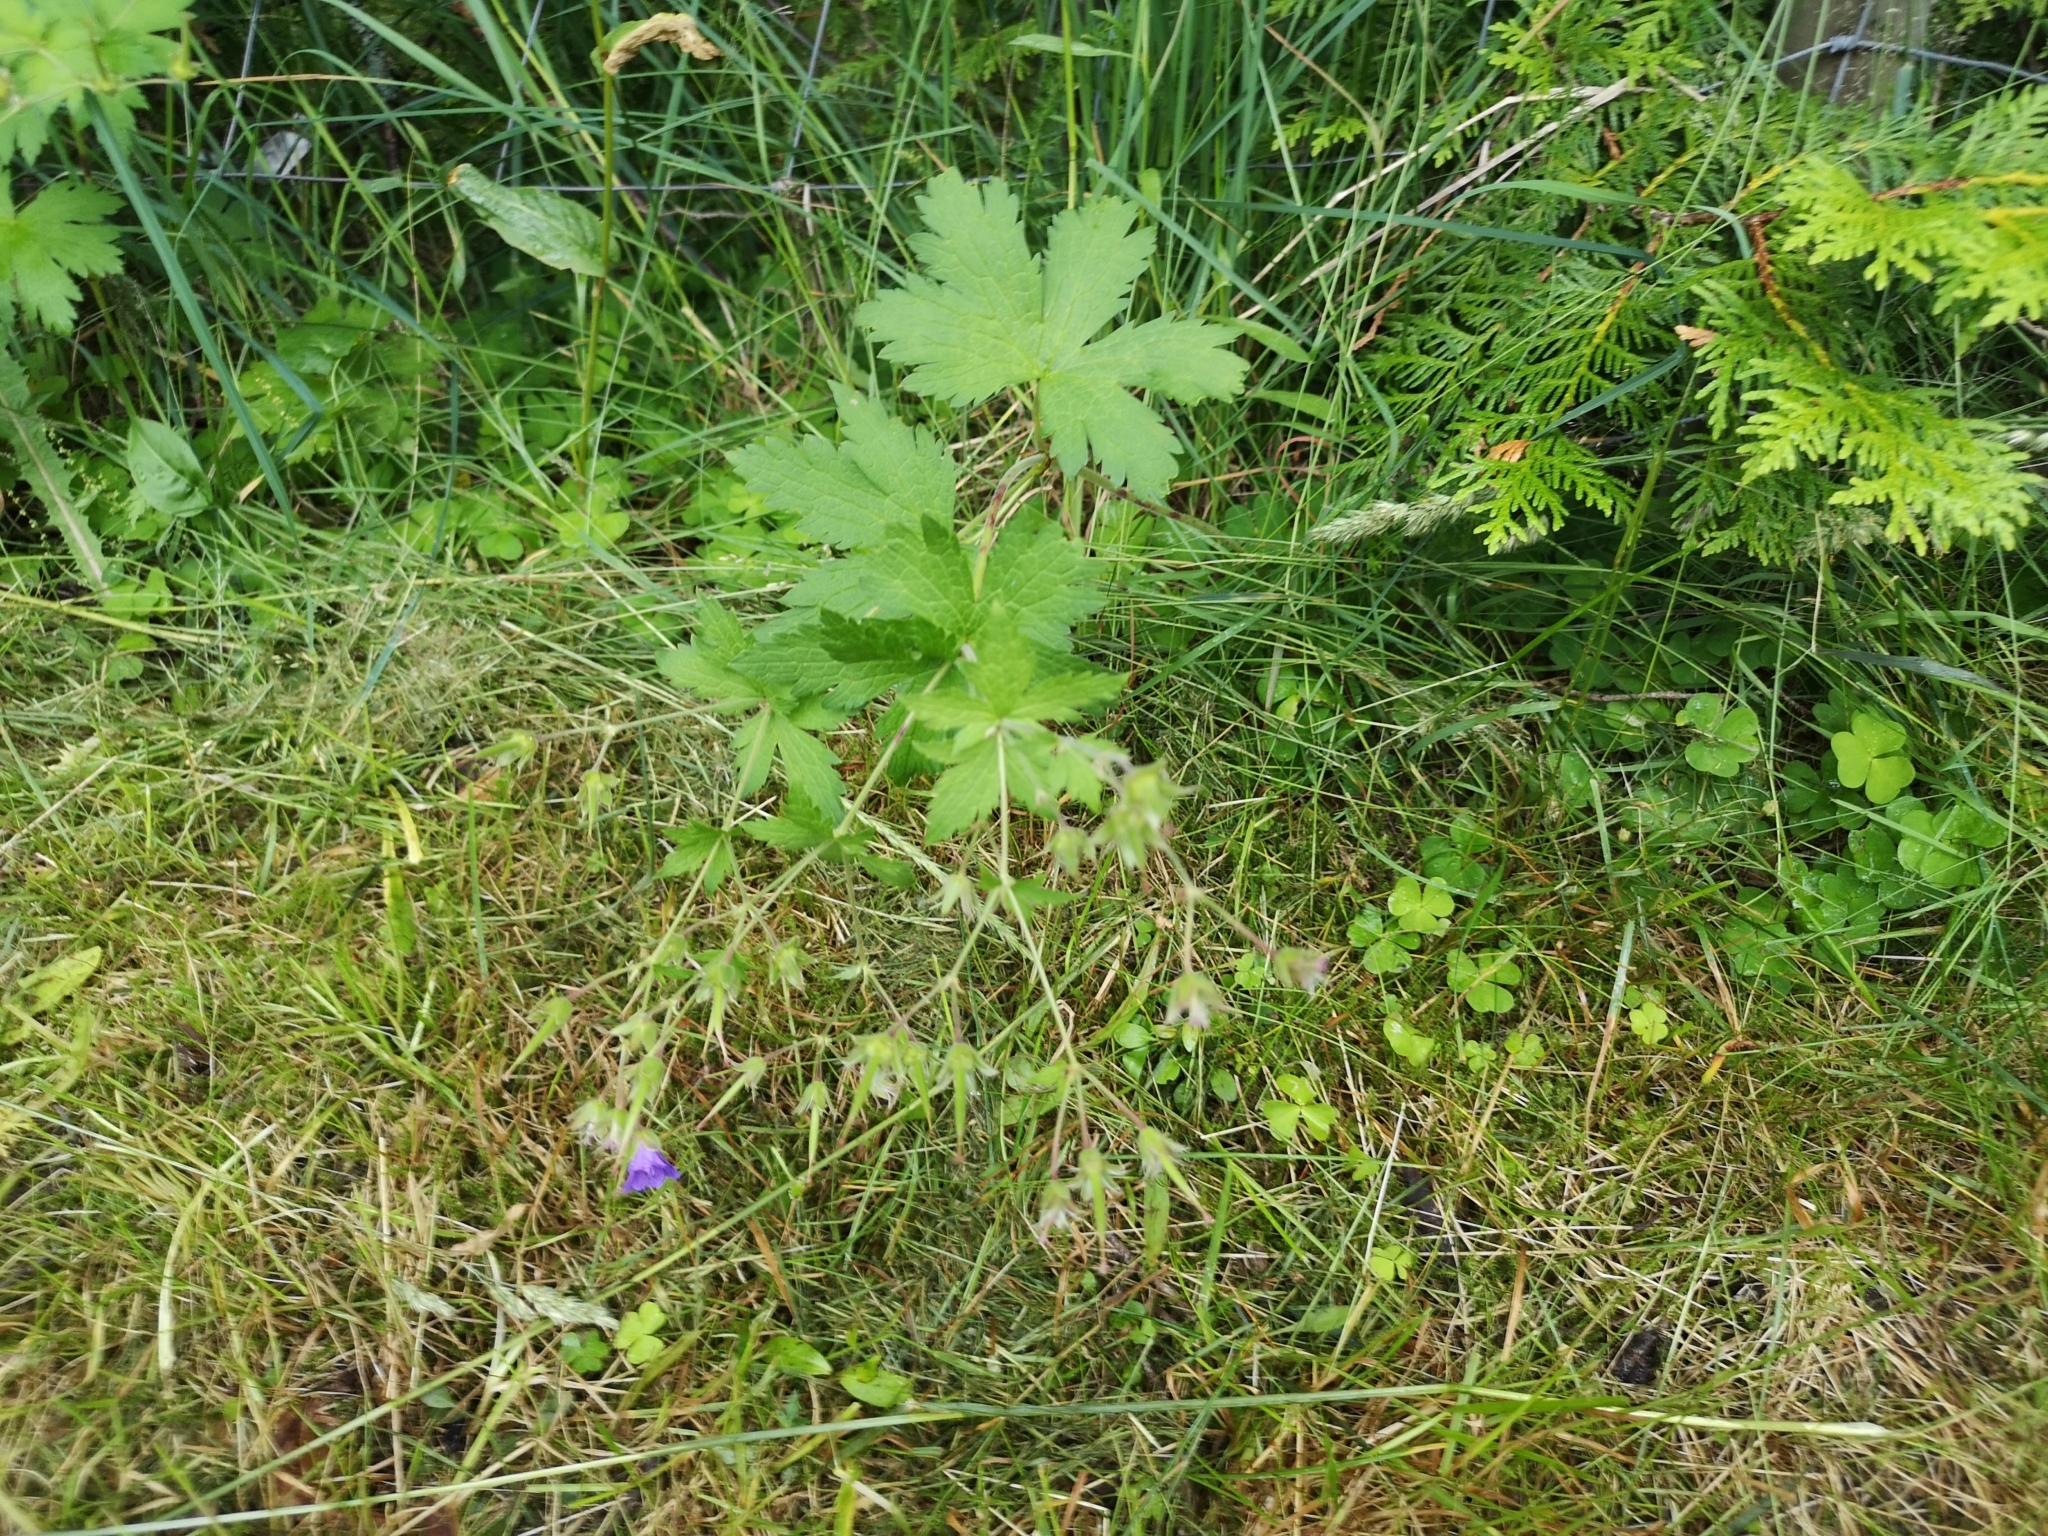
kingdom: Plantae
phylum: Tracheophyta
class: Magnoliopsida
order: Geraniales
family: Geraniaceae
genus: Geranium
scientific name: Geranium sylvaticum
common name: Wood crane's-bill
